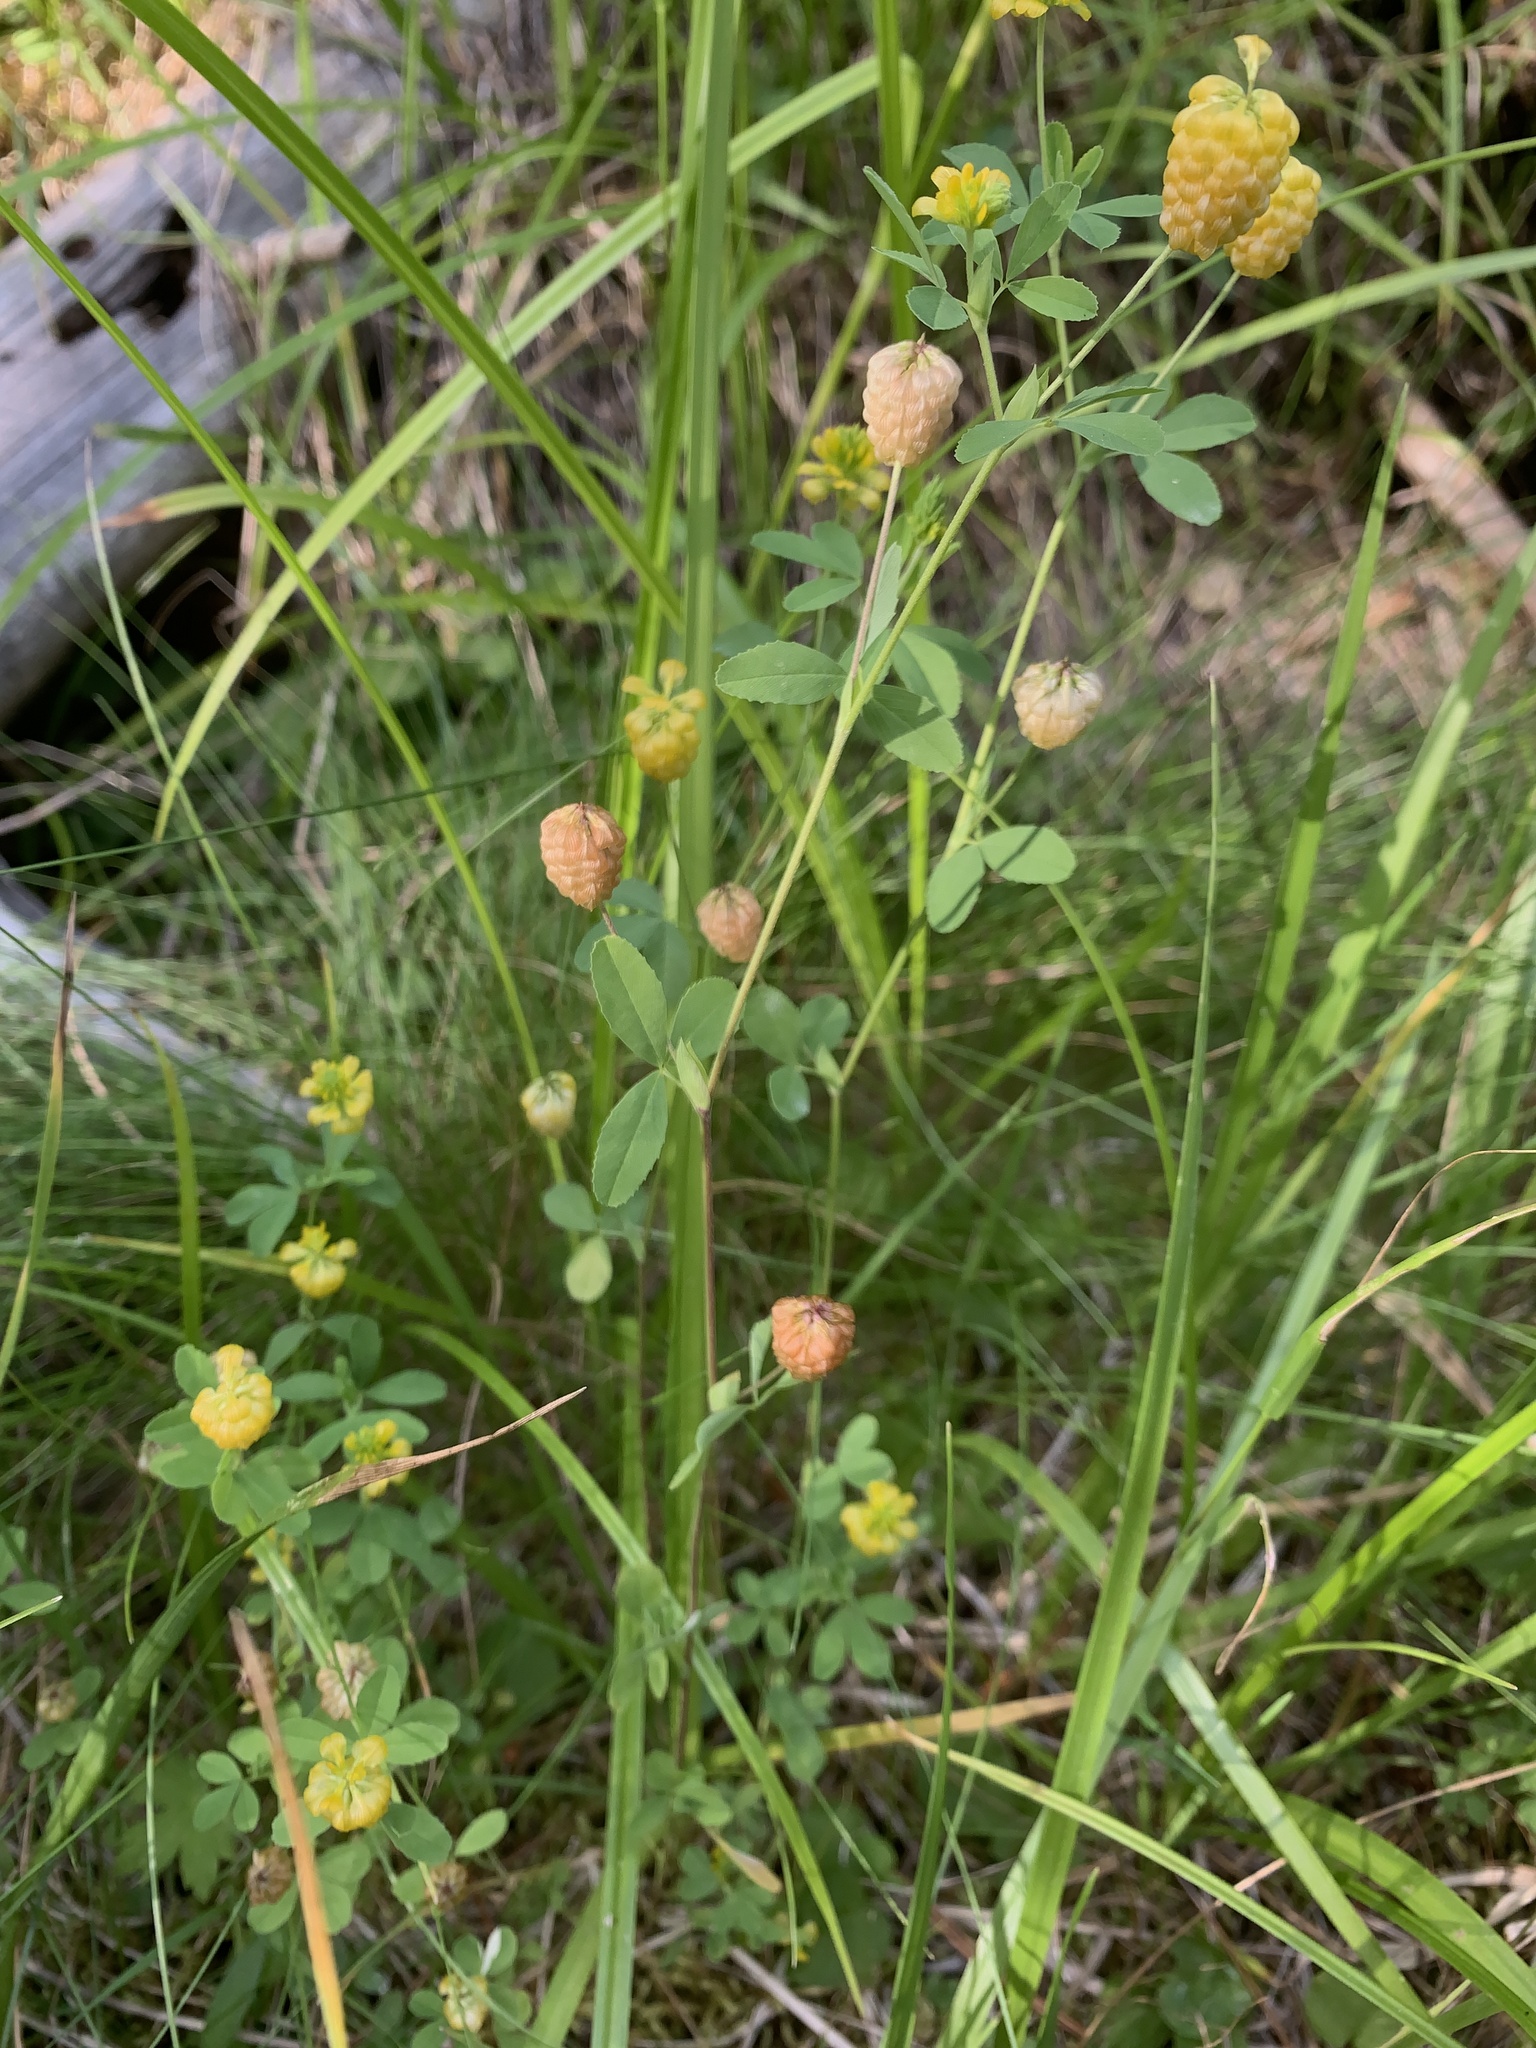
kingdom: Plantae
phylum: Tracheophyta
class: Magnoliopsida
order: Fabales
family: Fabaceae
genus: Trifolium
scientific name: Trifolium aureum
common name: Golden clover
